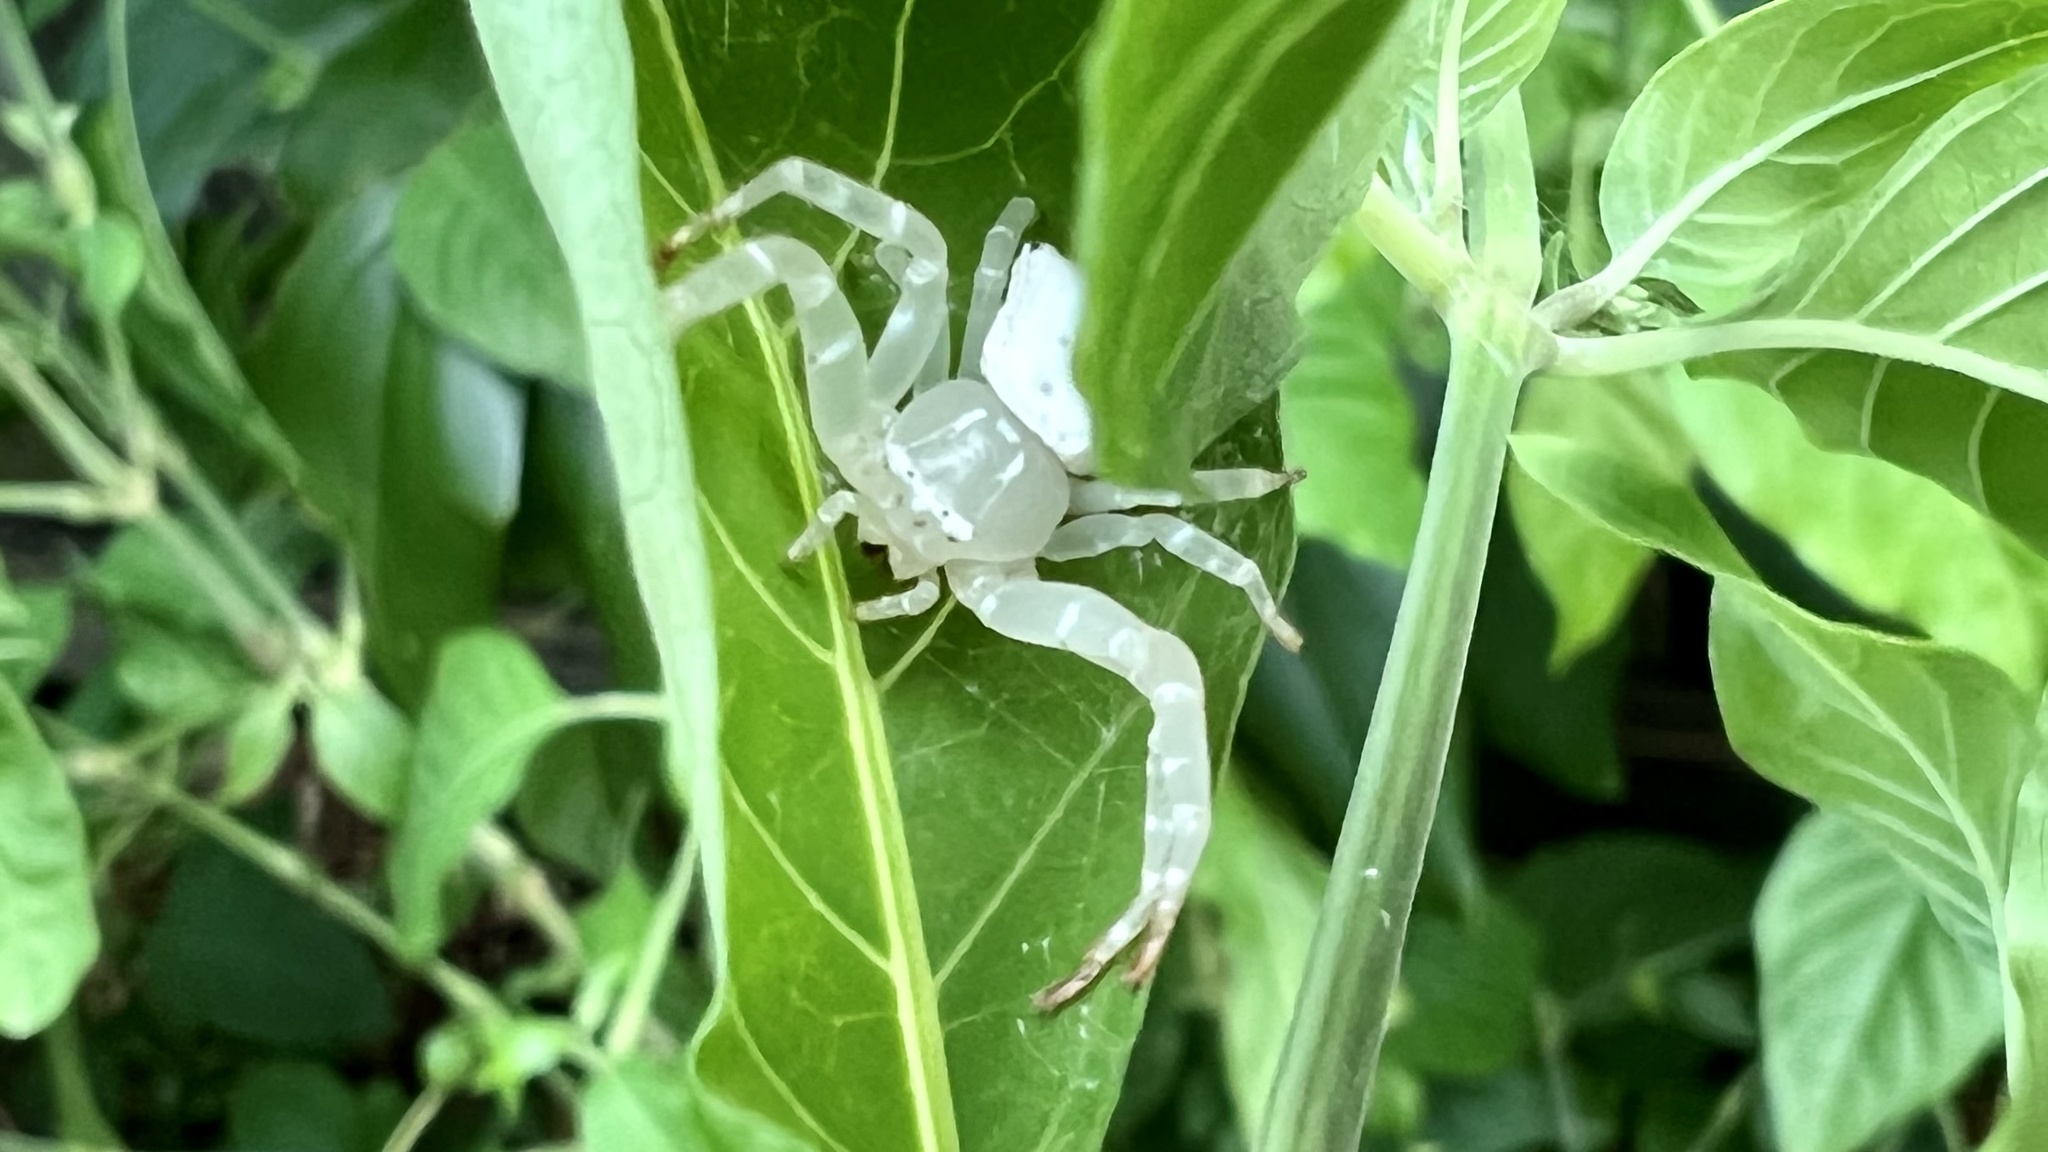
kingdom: Animalia
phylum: Arthropoda
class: Arachnida
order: Araneae
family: Thomisidae
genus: Thomisus
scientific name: Thomisus spectabilis
